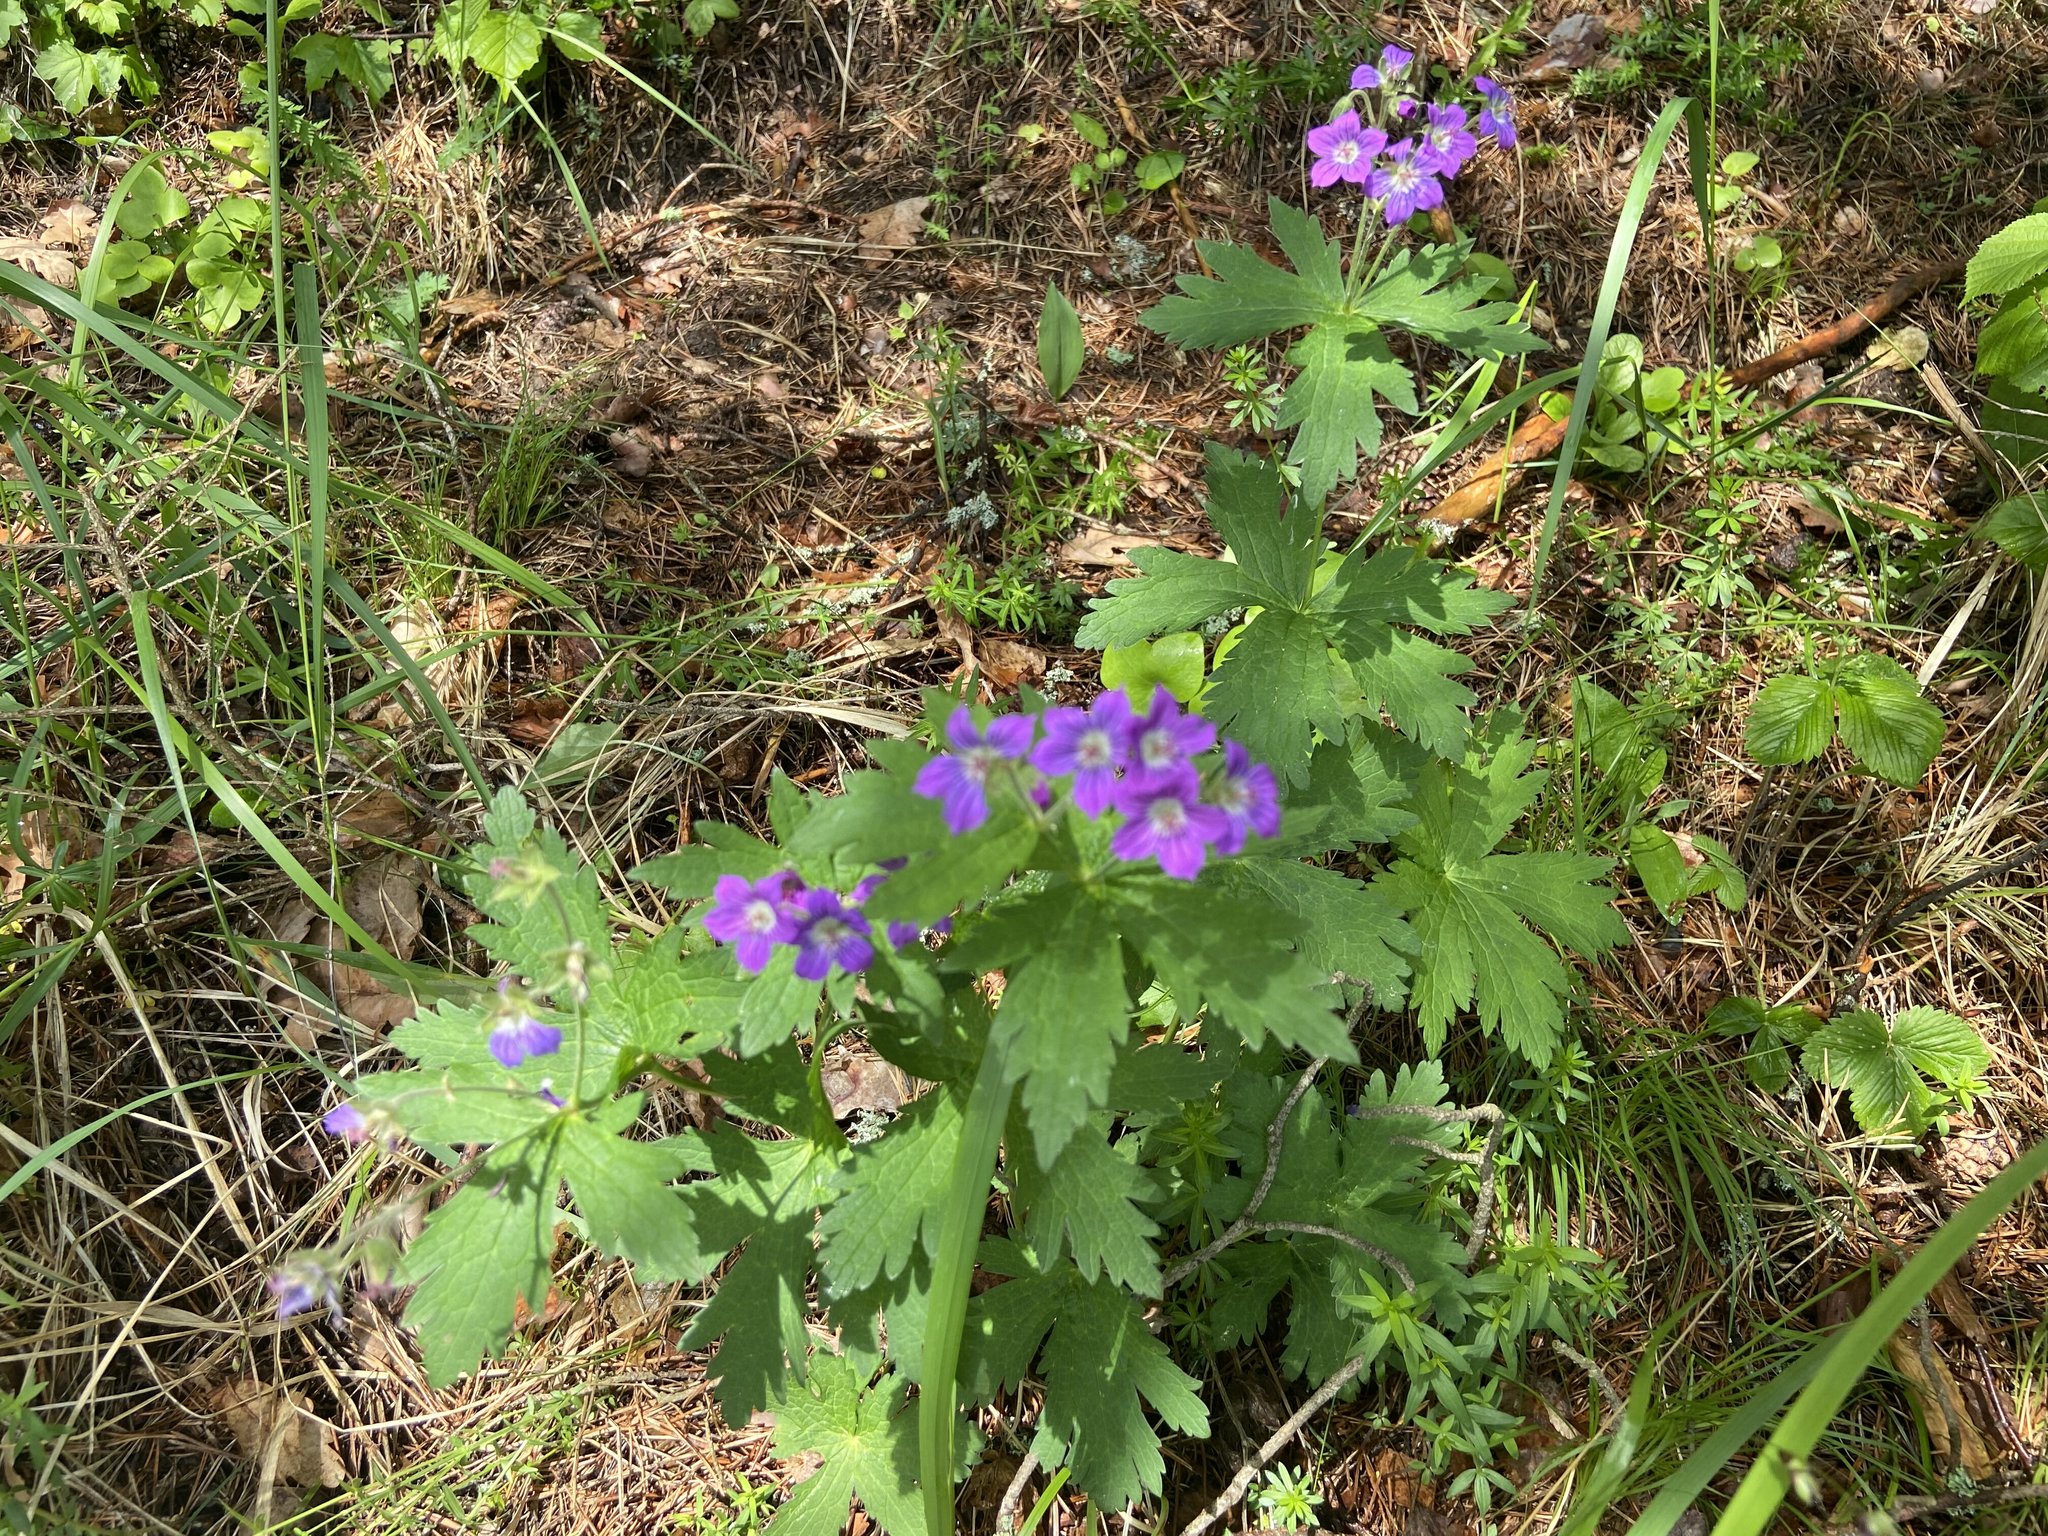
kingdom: Plantae
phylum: Tracheophyta
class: Magnoliopsida
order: Geraniales
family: Geraniaceae
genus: Geranium
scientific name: Geranium sylvaticum
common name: Wood crane's-bill
